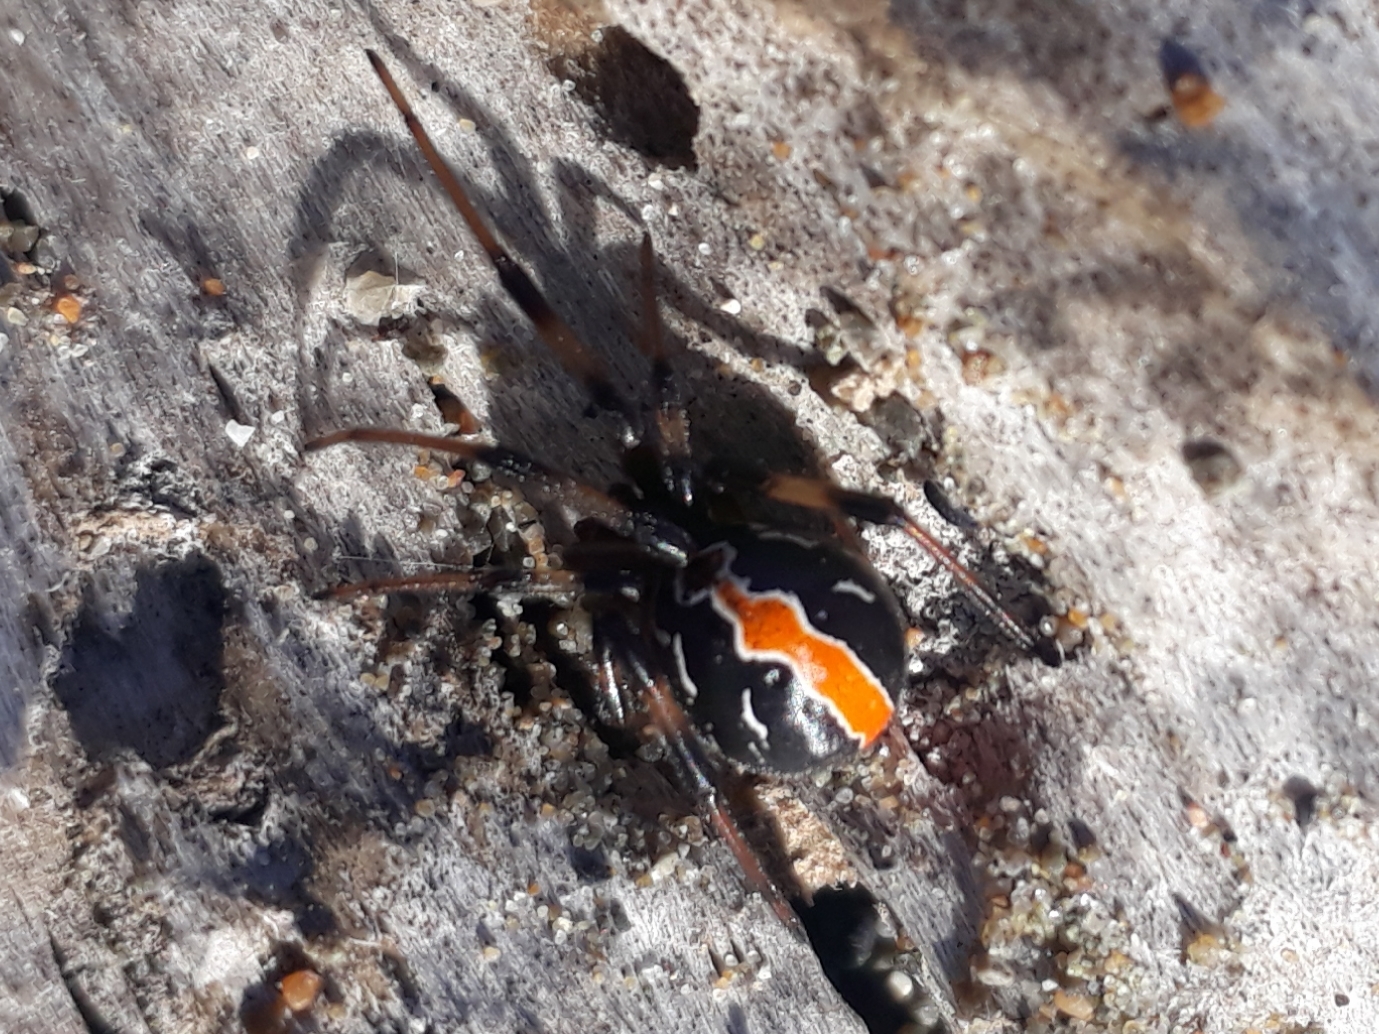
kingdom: Animalia
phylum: Arthropoda
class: Arachnida
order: Araneae
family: Theridiidae
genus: Latrodectus
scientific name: Latrodectus katipo
